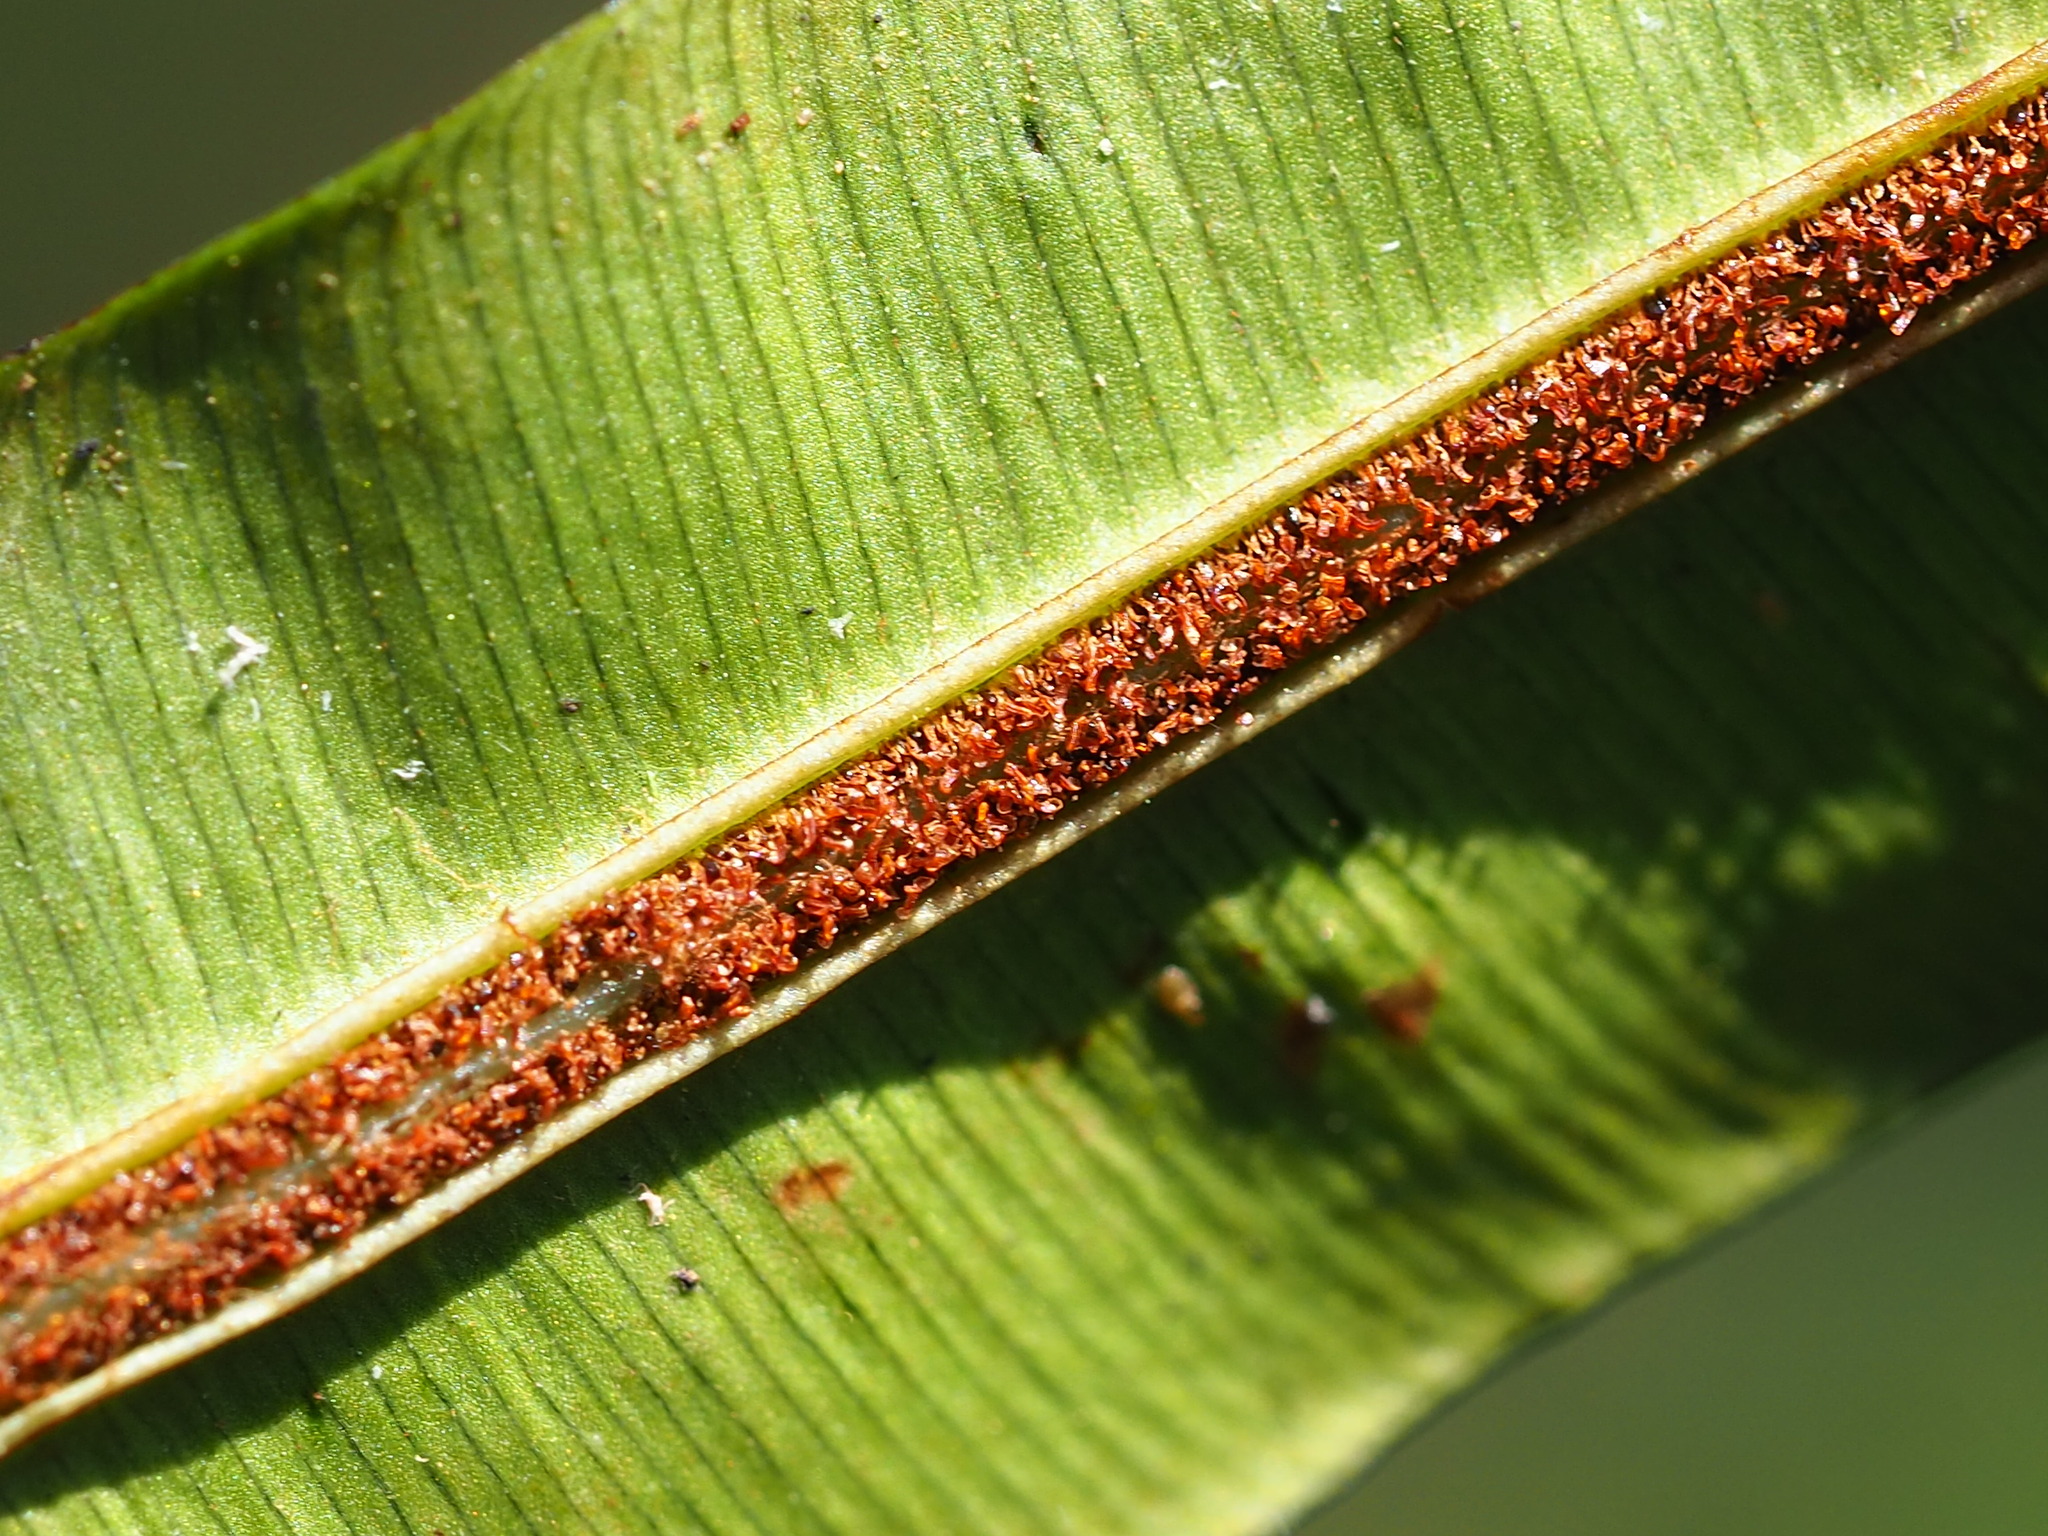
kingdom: Plantae
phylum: Tracheophyta
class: Polypodiopsida
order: Polypodiales
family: Blechnaceae
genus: Blechnopsis
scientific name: Blechnopsis orientalis
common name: Oriental blechnum
